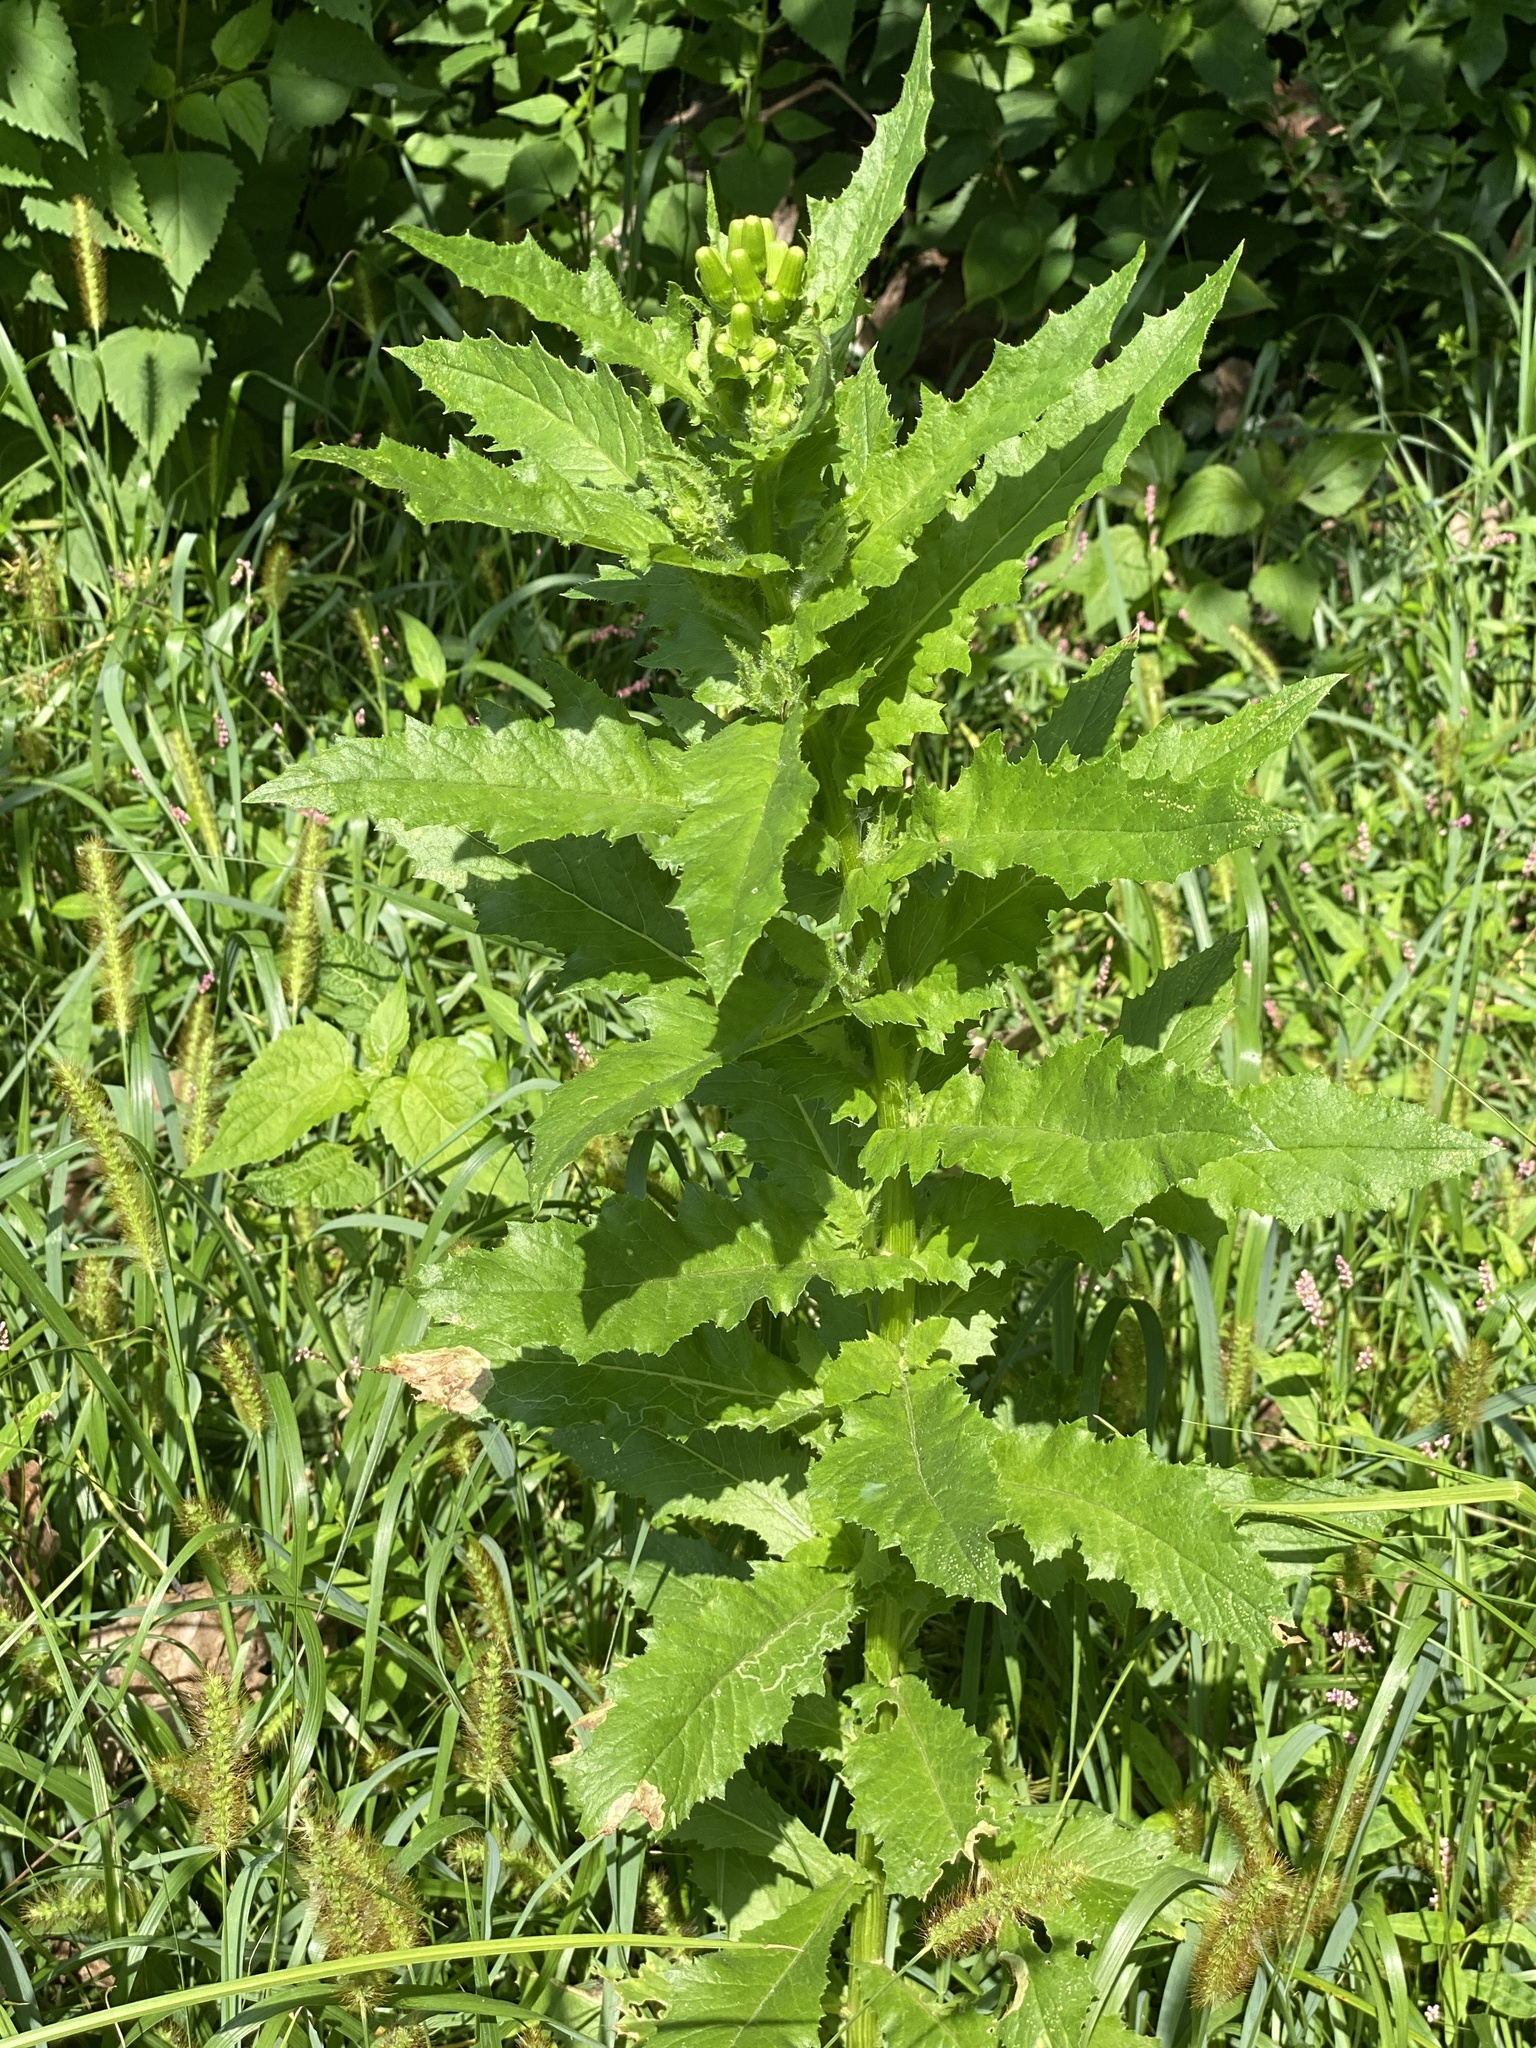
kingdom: Plantae
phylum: Tracheophyta
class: Magnoliopsida
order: Asterales
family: Asteraceae
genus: Erechtites
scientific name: Erechtites hieraciifolius
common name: American burnweed
